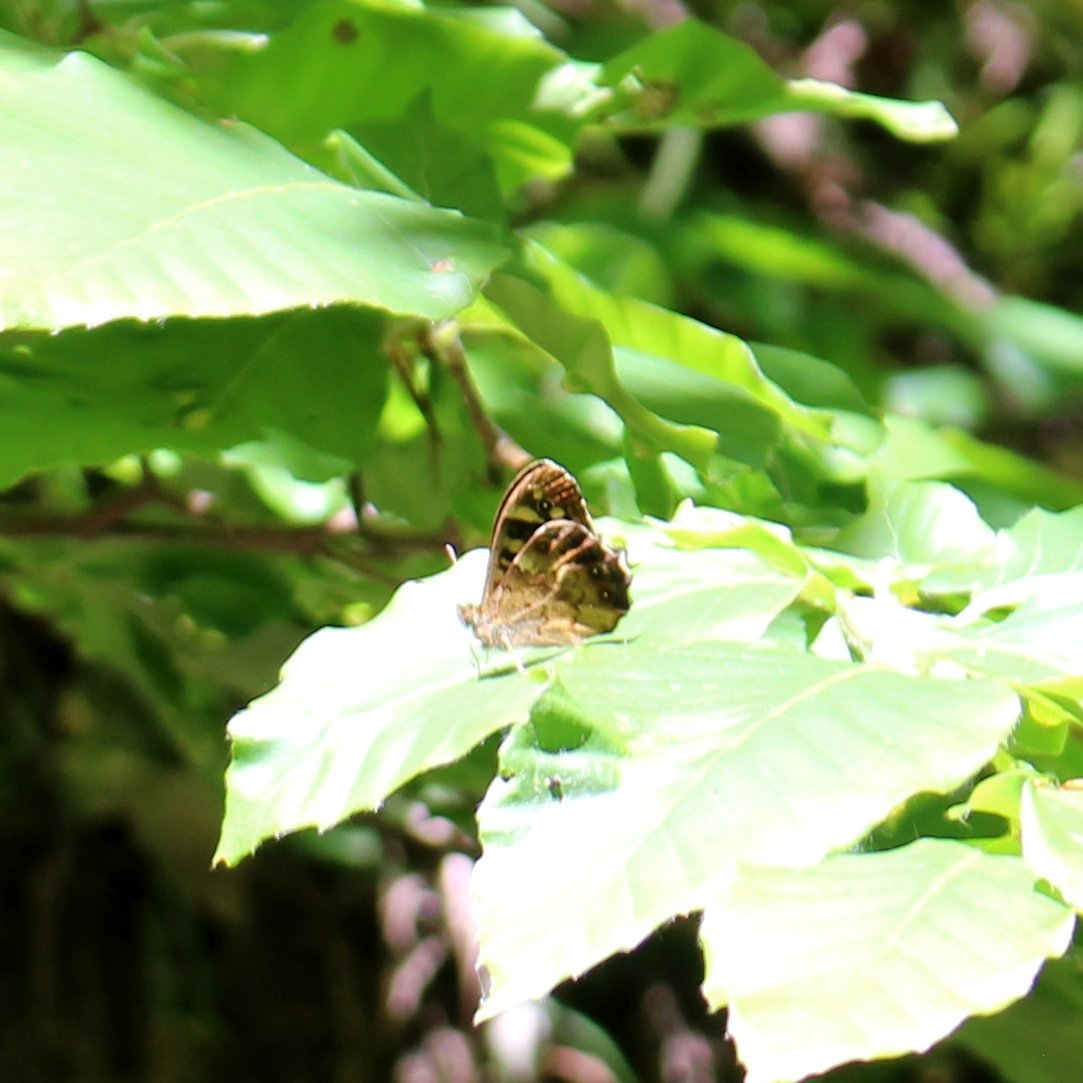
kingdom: Animalia
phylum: Arthropoda
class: Insecta
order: Lepidoptera
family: Nymphalidae
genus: Pararge
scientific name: Pararge aegeria
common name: Speckled wood
